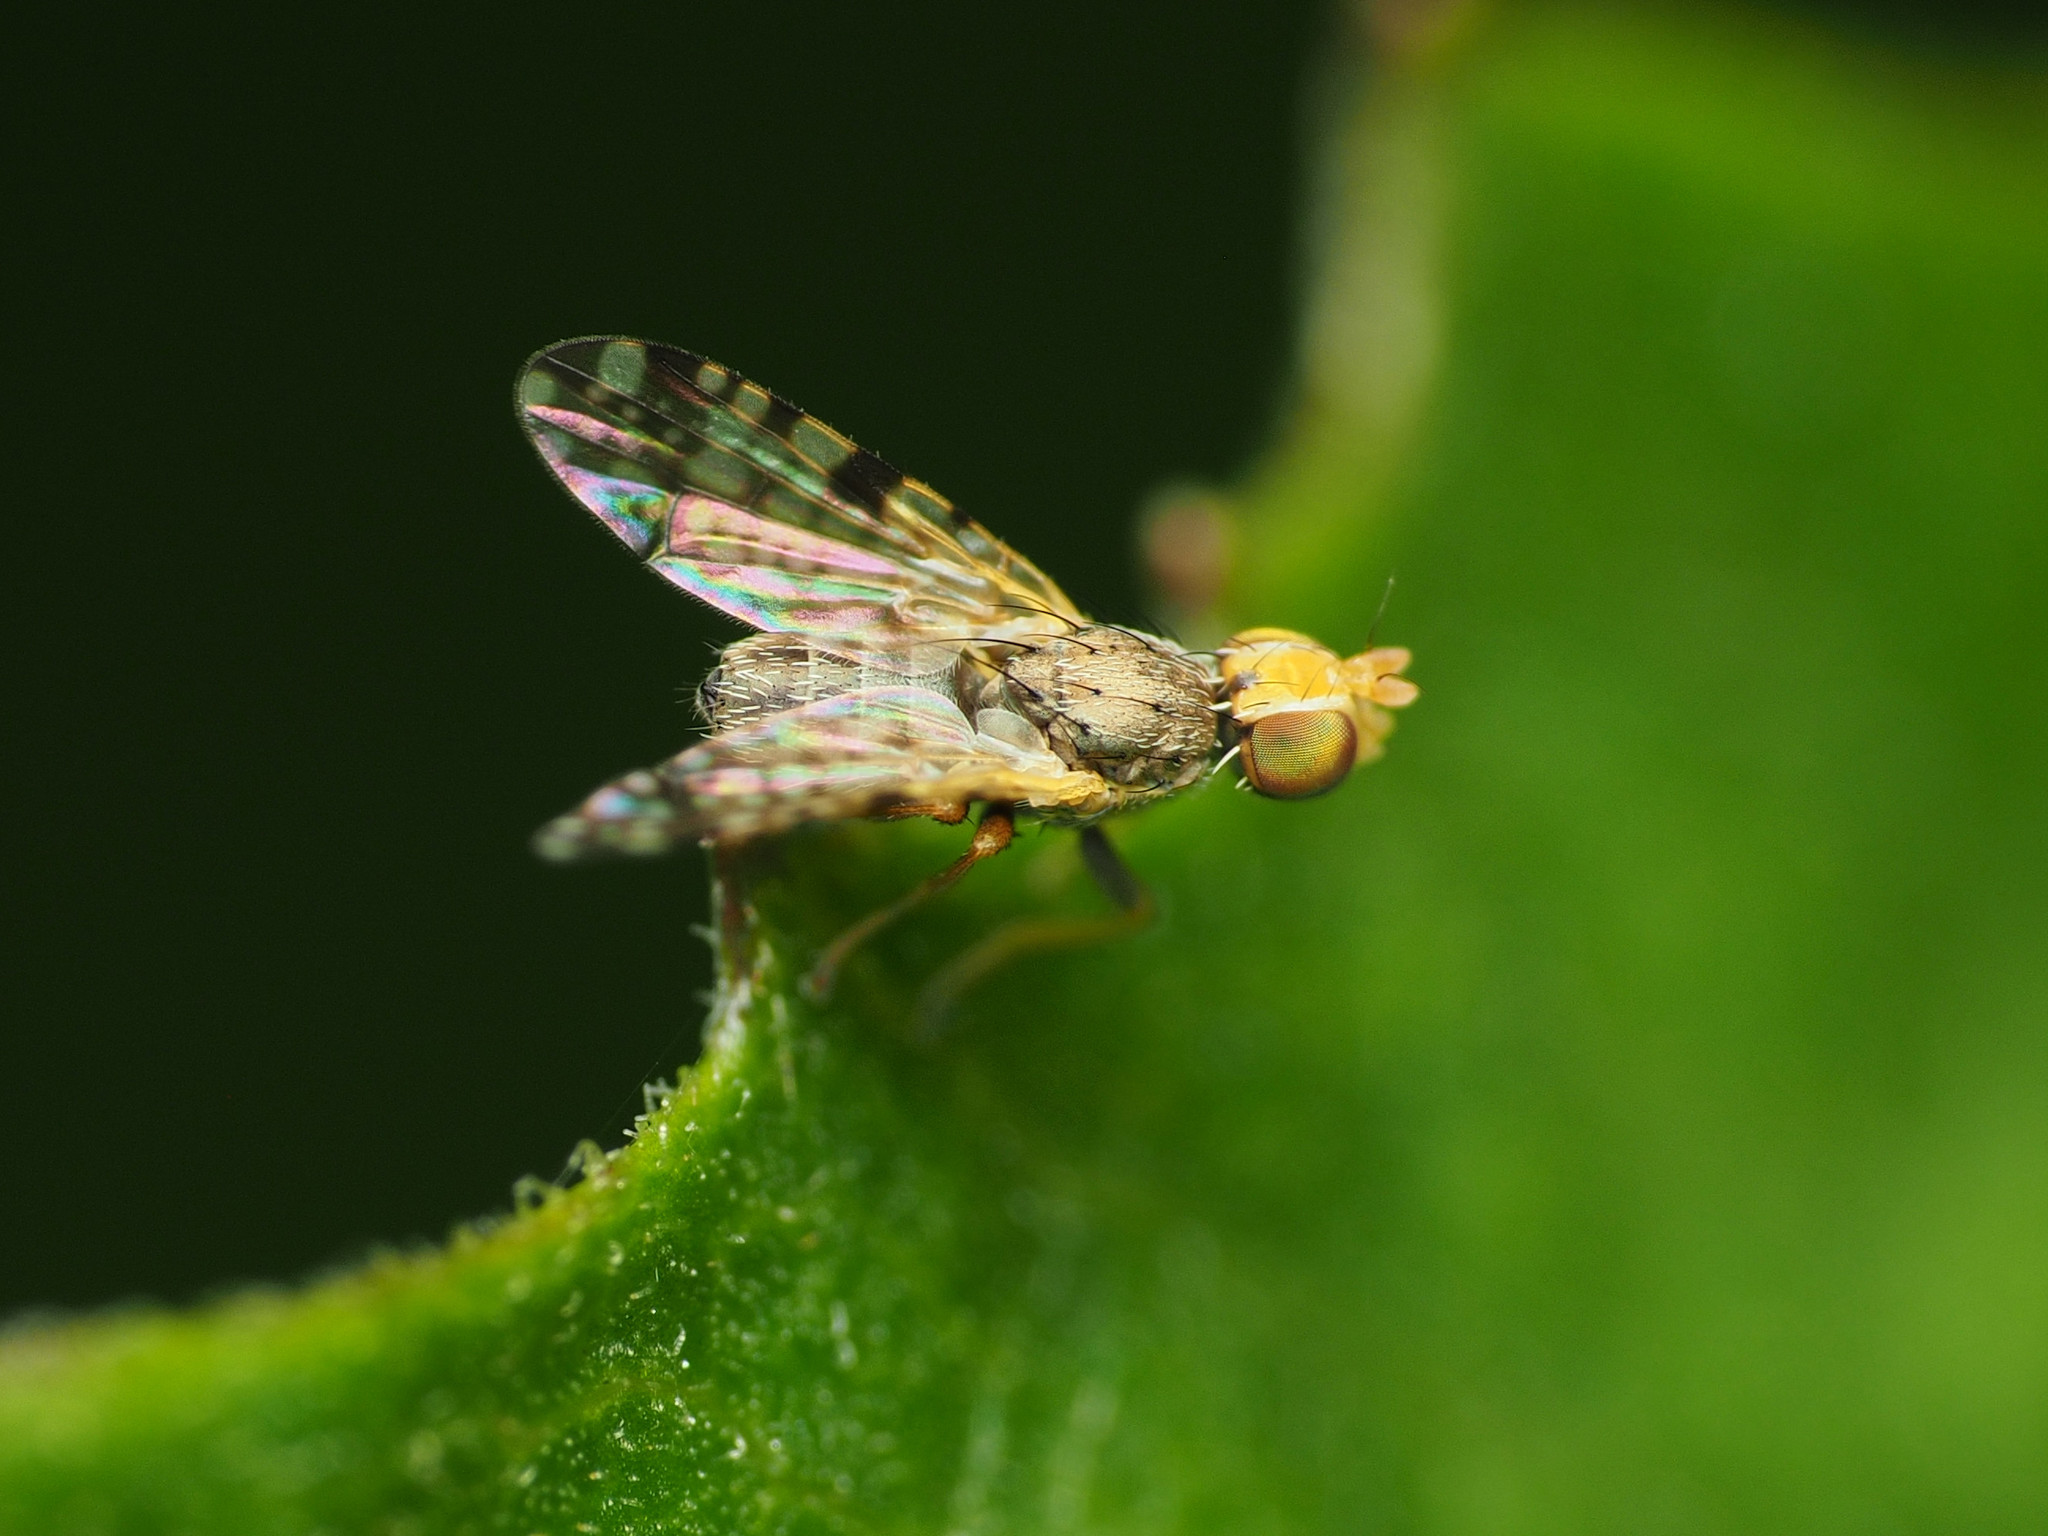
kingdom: Animalia
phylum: Arthropoda
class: Insecta
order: Diptera
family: Tephritidae
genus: Dioxyna
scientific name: Dioxyna picciola
